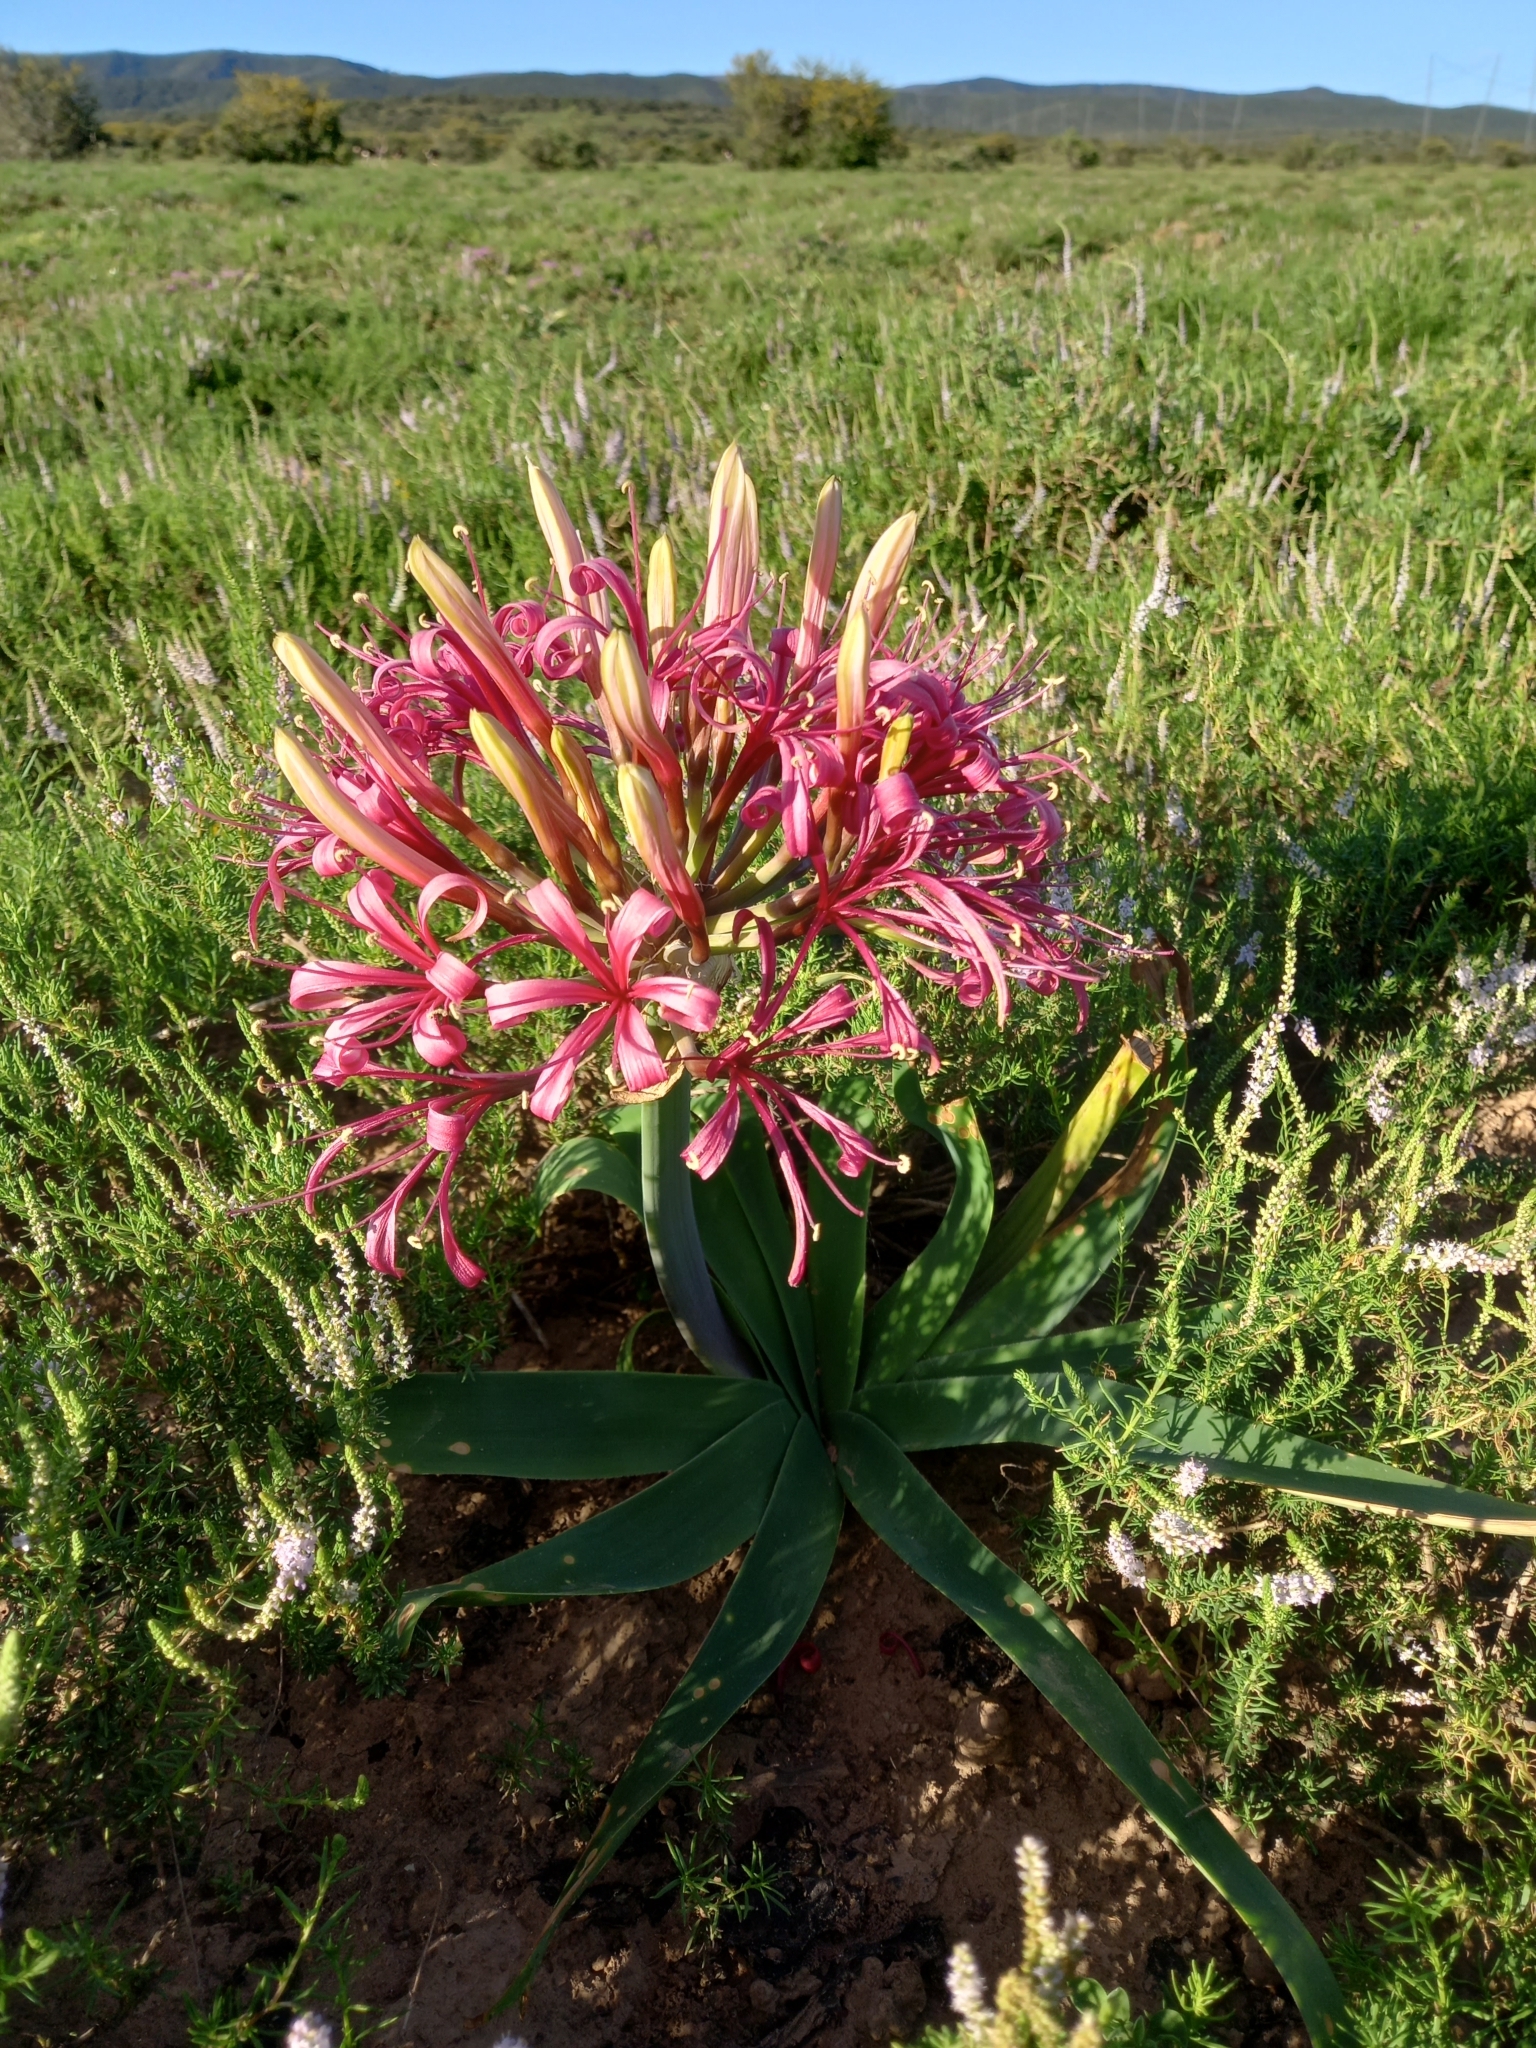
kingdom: Plantae
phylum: Tracheophyta
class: Liliopsida
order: Asparagales
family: Amaryllidaceae
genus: Ammocharis
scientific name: Ammocharis coranica
